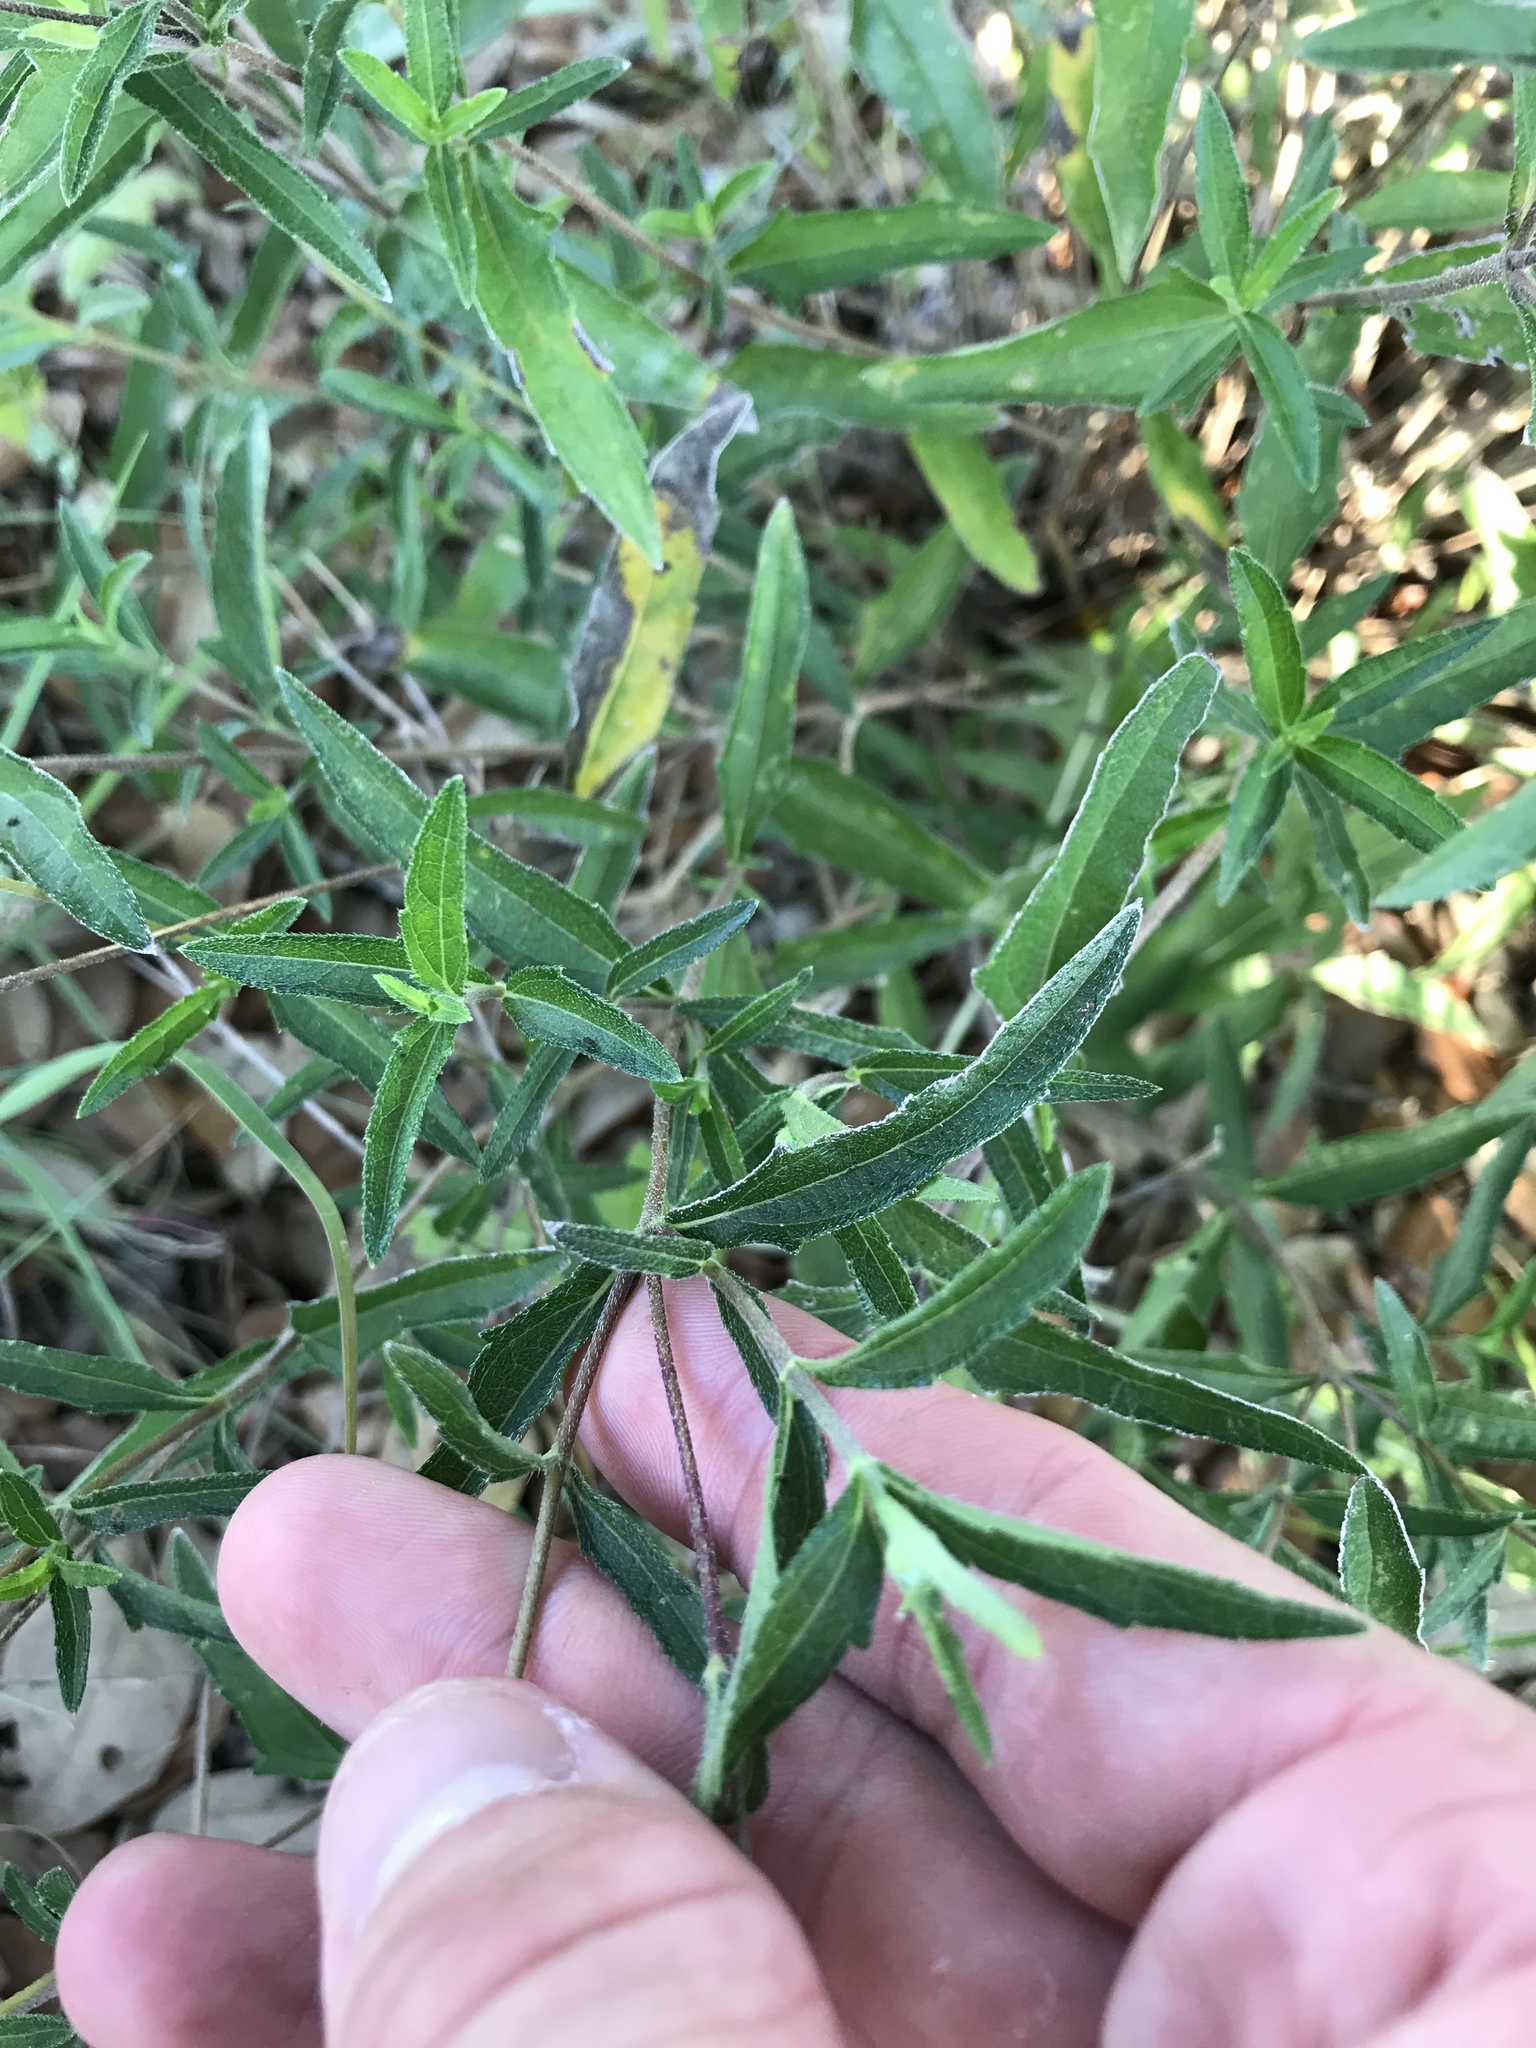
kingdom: Plantae
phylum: Tracheophyta
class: Magnoliopsida
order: Asterales
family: Asteraceae
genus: Wedelia
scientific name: Wedelia acapulcensis
